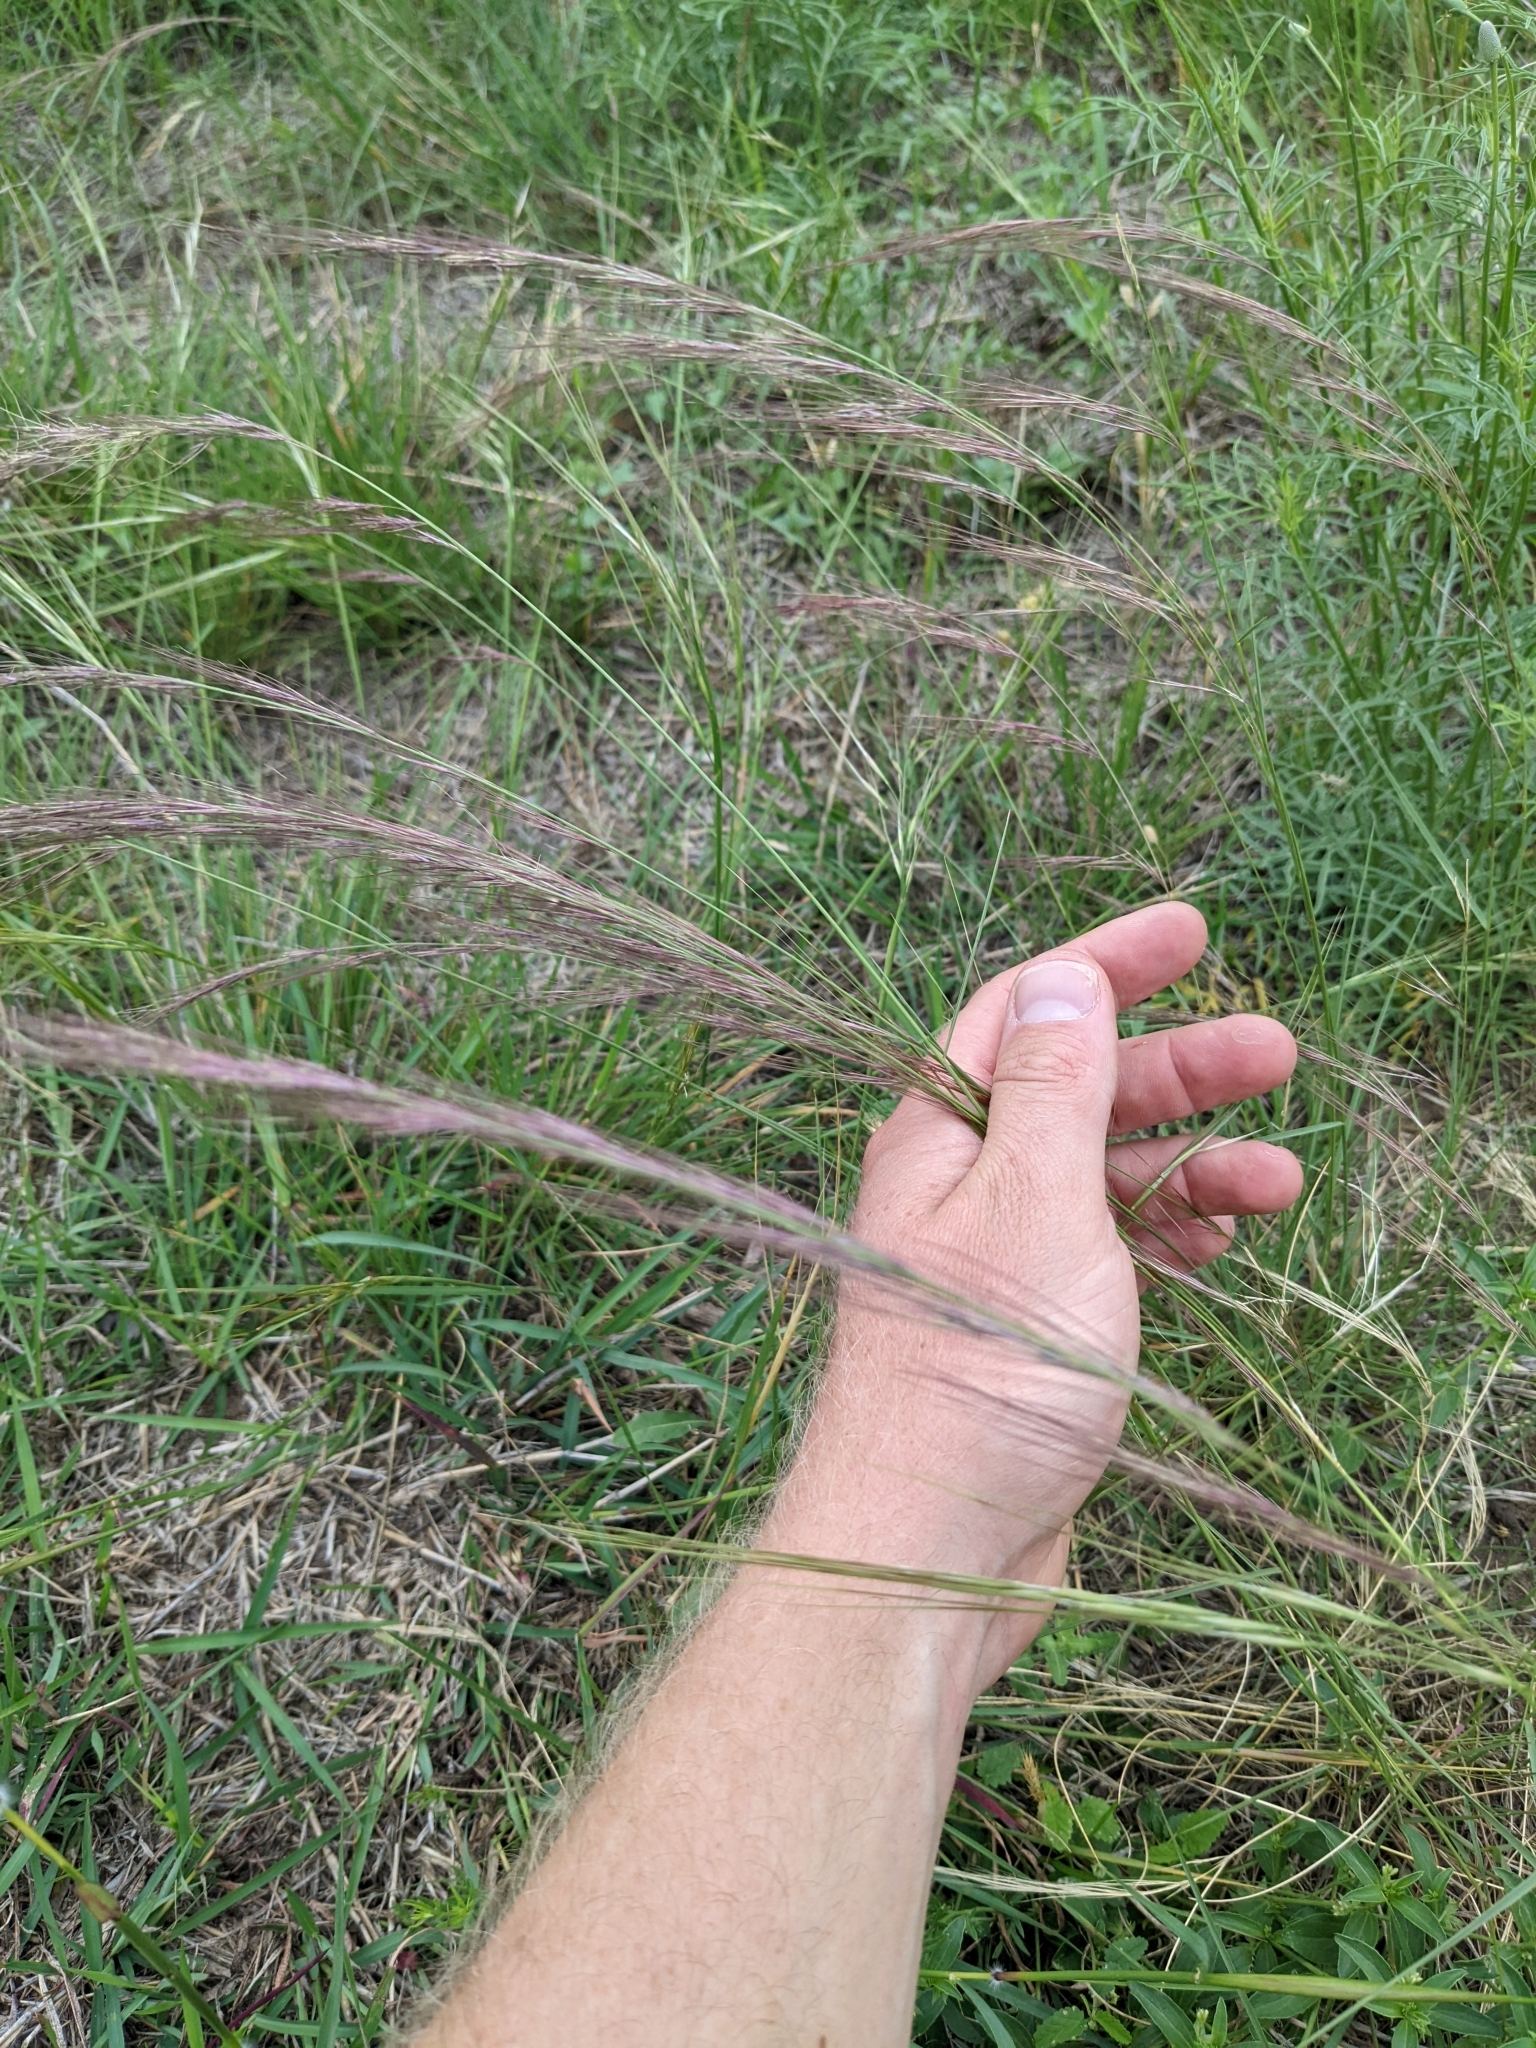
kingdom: Plantae
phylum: Tracheophyta
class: Liliopsida
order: Poales
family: Poaceae
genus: Aristida
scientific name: Aristida purpurea
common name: Purple threeawn
